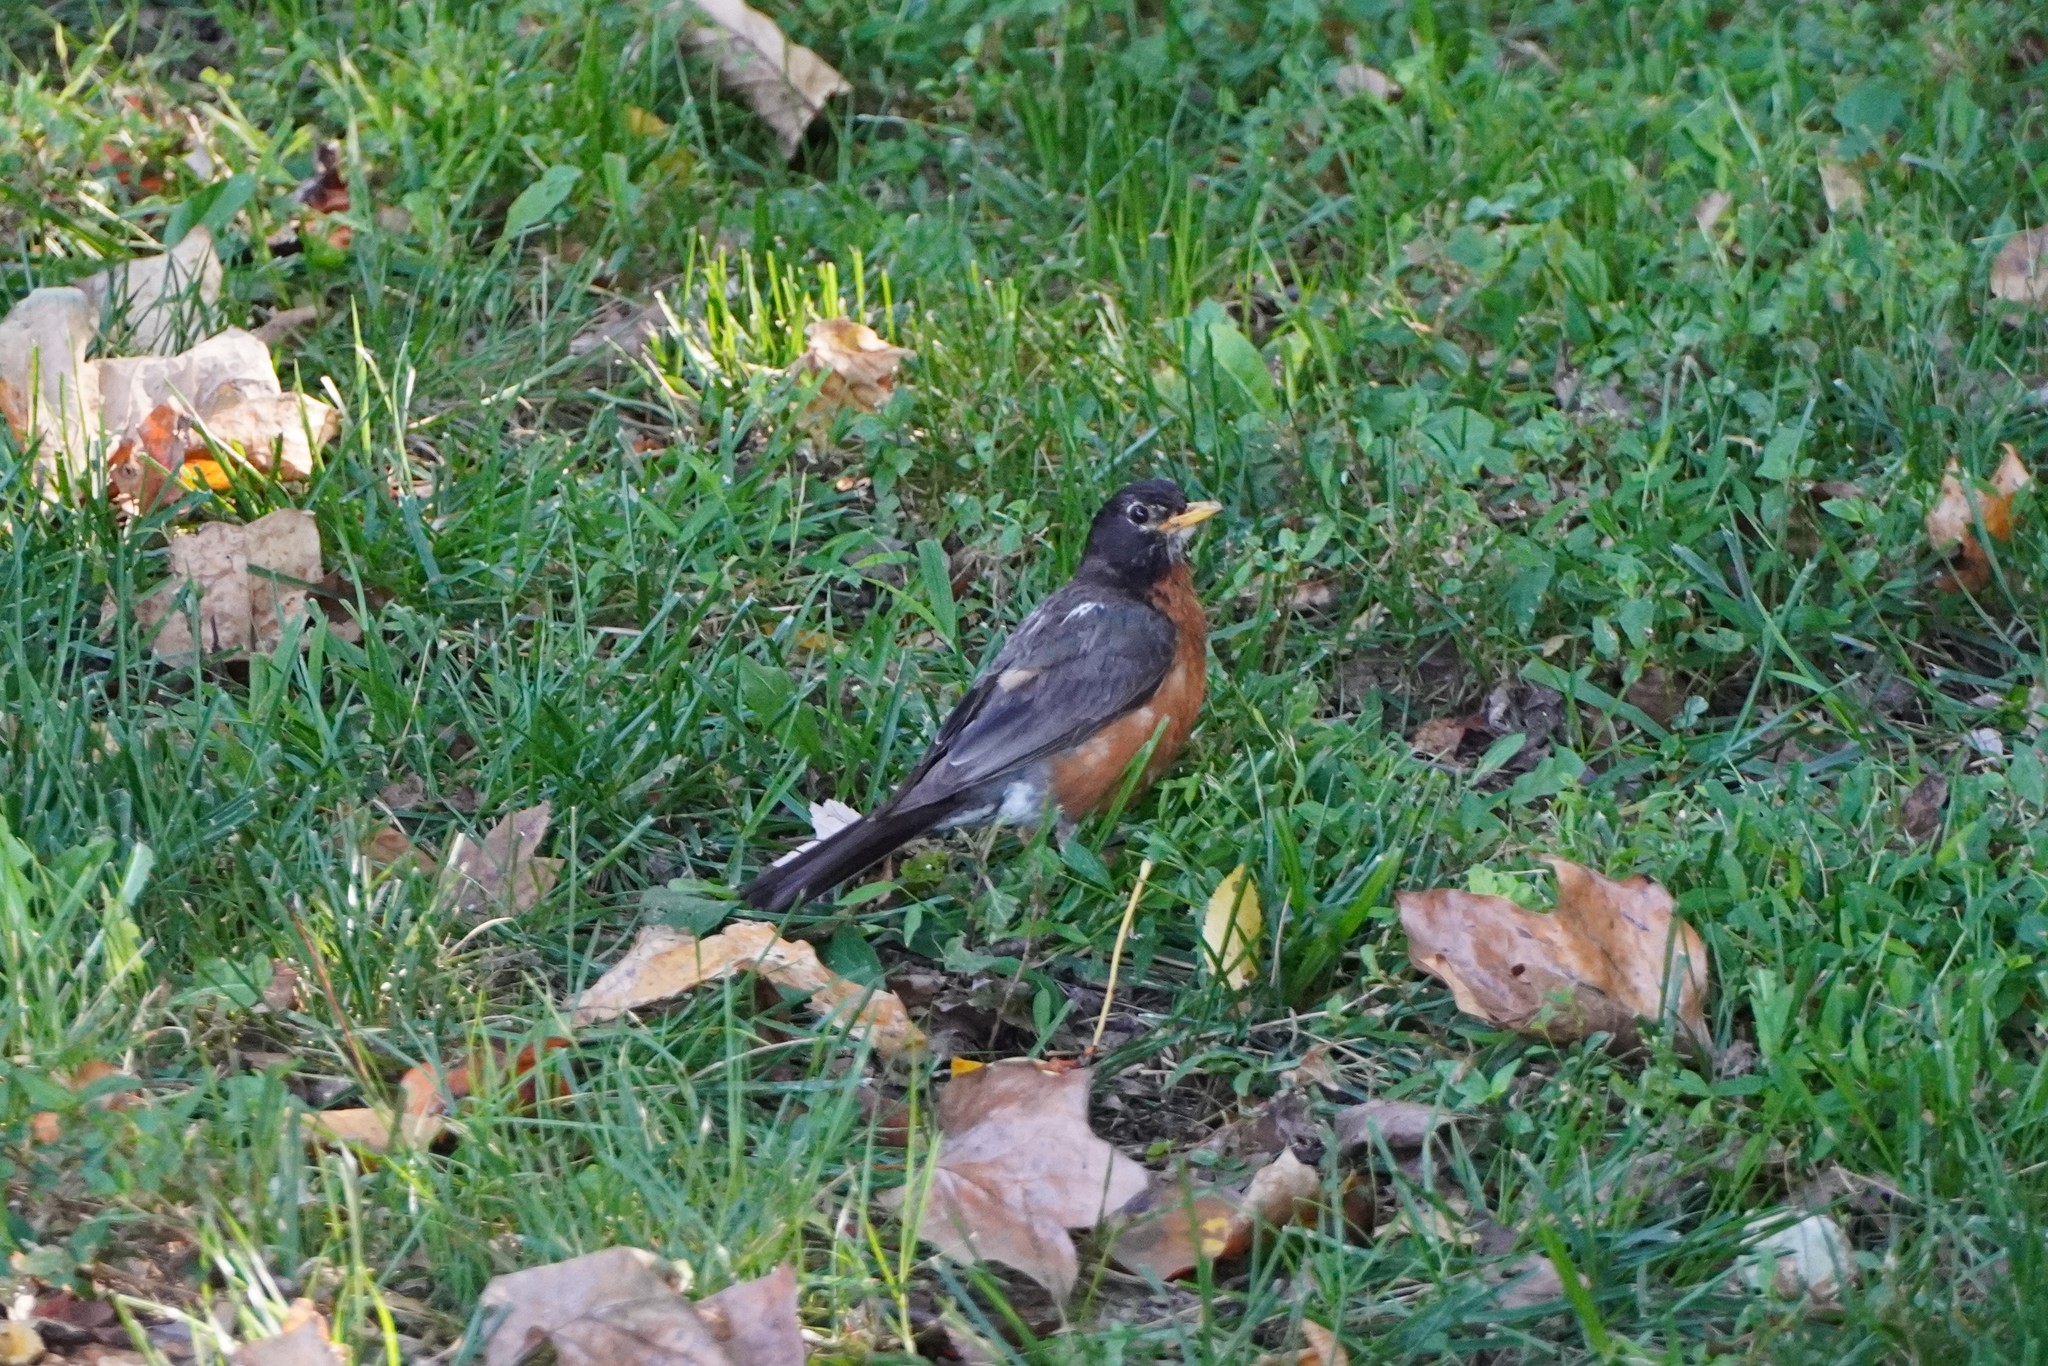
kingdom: Animalia
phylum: Chordata
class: Aves
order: Passeriformes
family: Turdidae
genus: Turdus
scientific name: Turdus migratorius
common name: American robin
